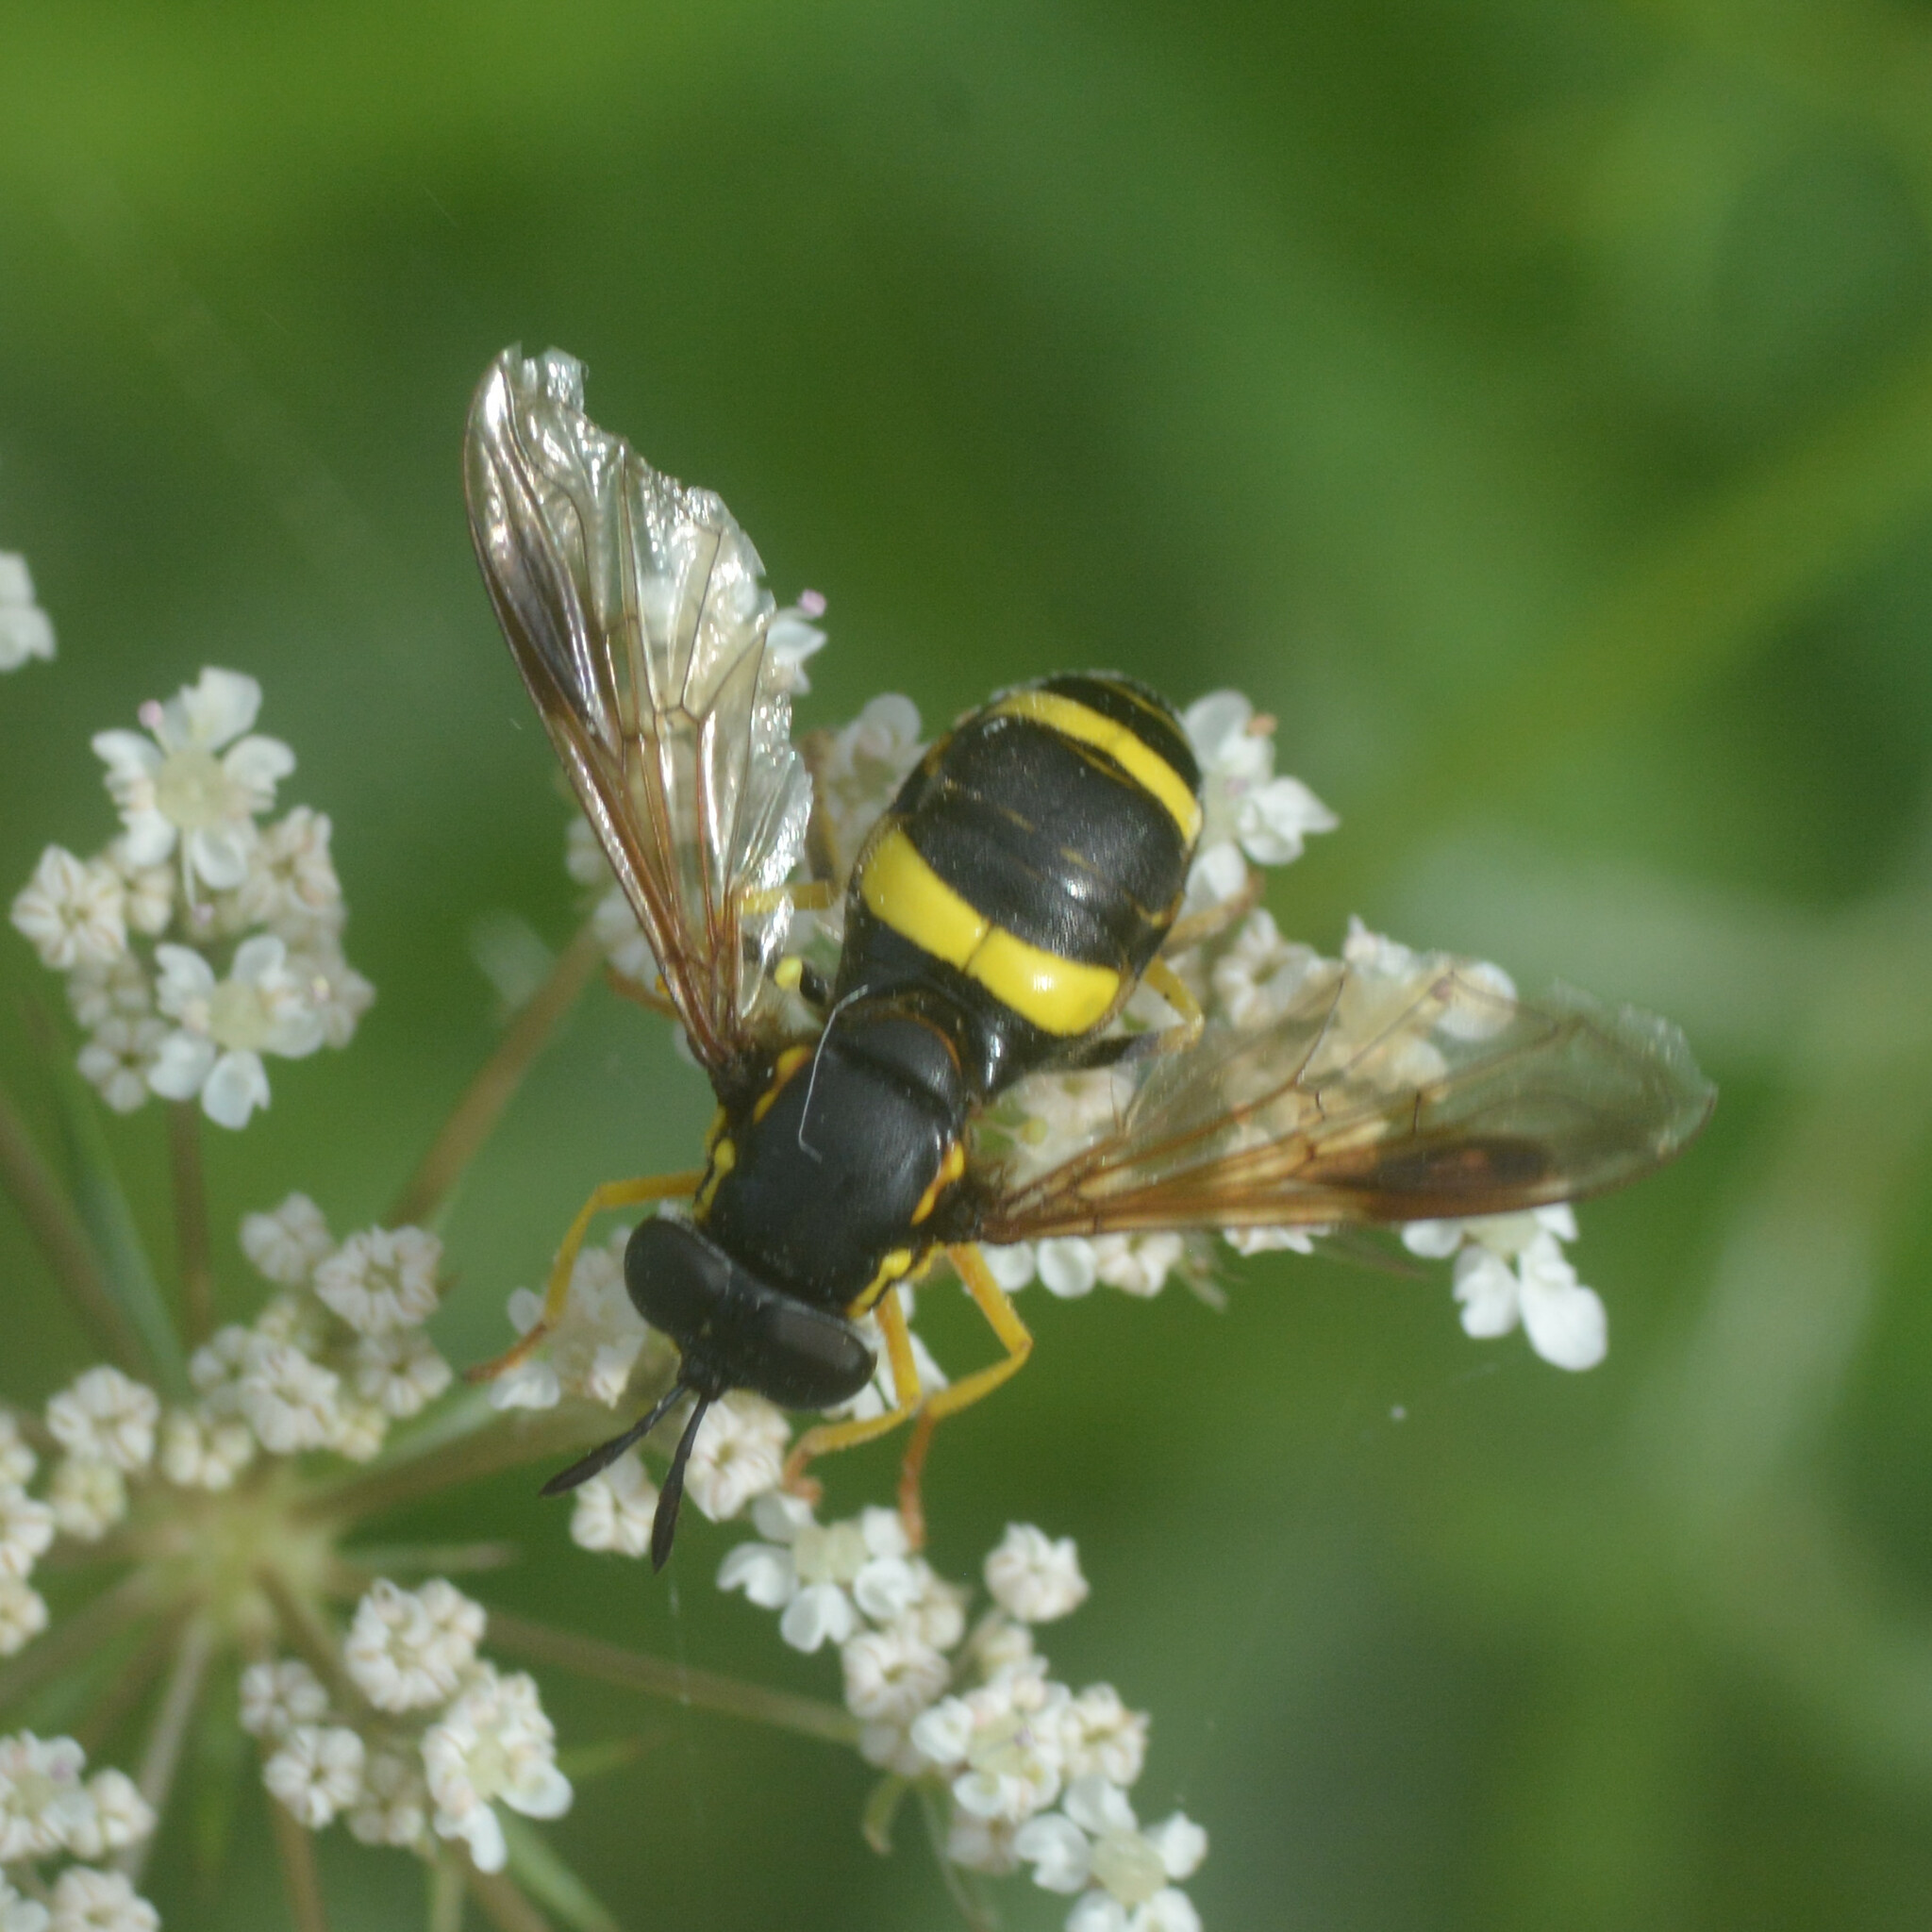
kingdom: Animalia
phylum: Arthropoda
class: Insecta
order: Diptera
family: Syrphidae
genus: Chrysotoxum
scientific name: Chrysotoxum bicincta
